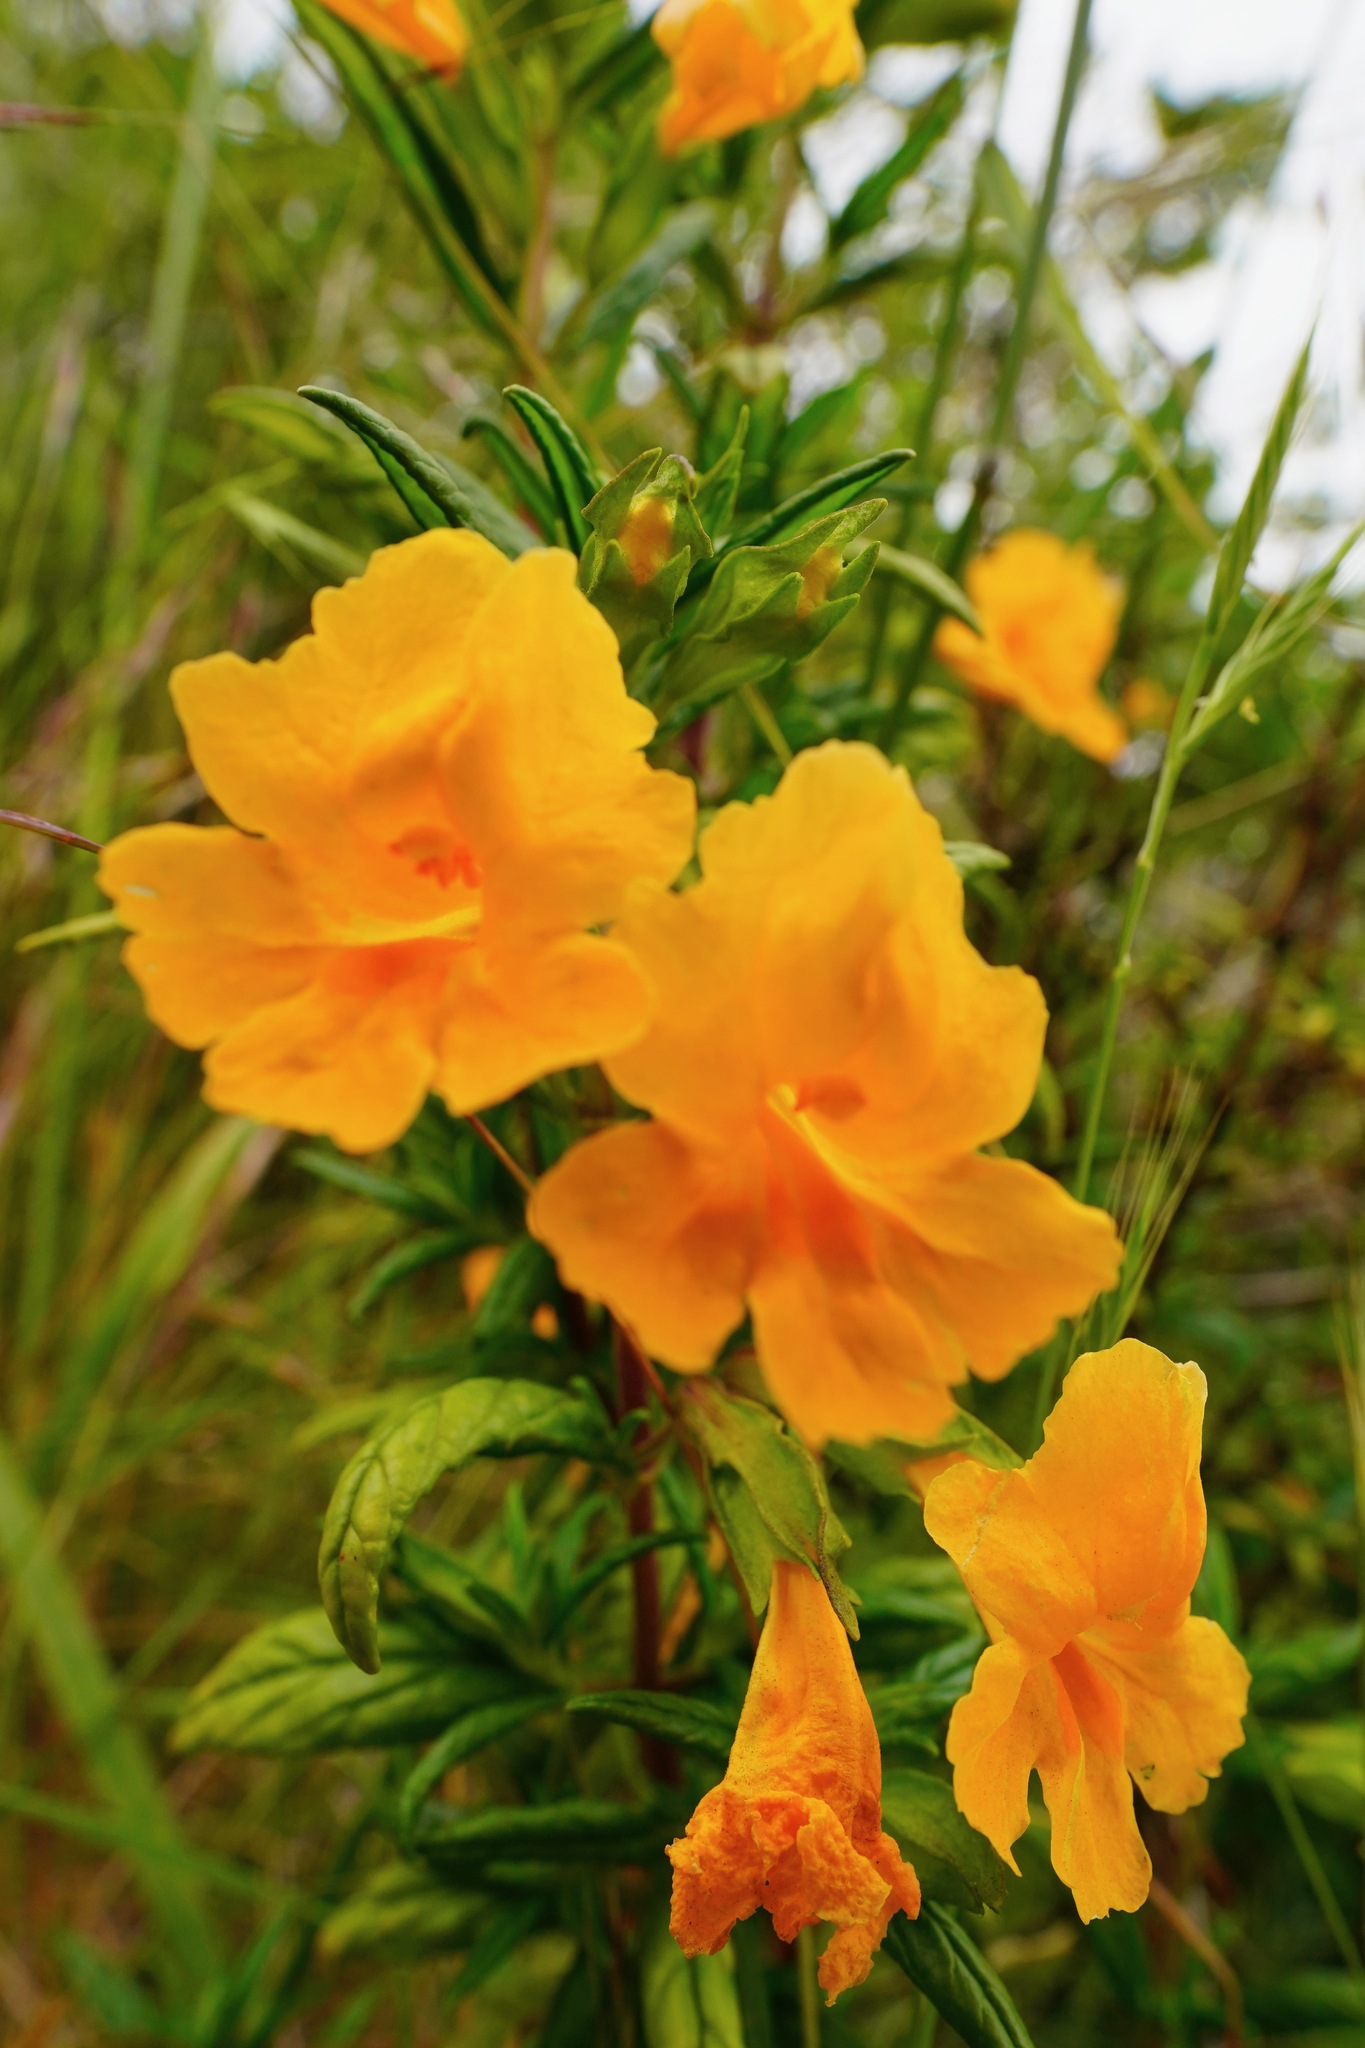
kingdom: Plantae
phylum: Tracheophyta
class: Magnoliopsida
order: Lamiales
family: Phrymaceae
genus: Diplacus
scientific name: Diplacus aurantiacus
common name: Bush monkey-flower
